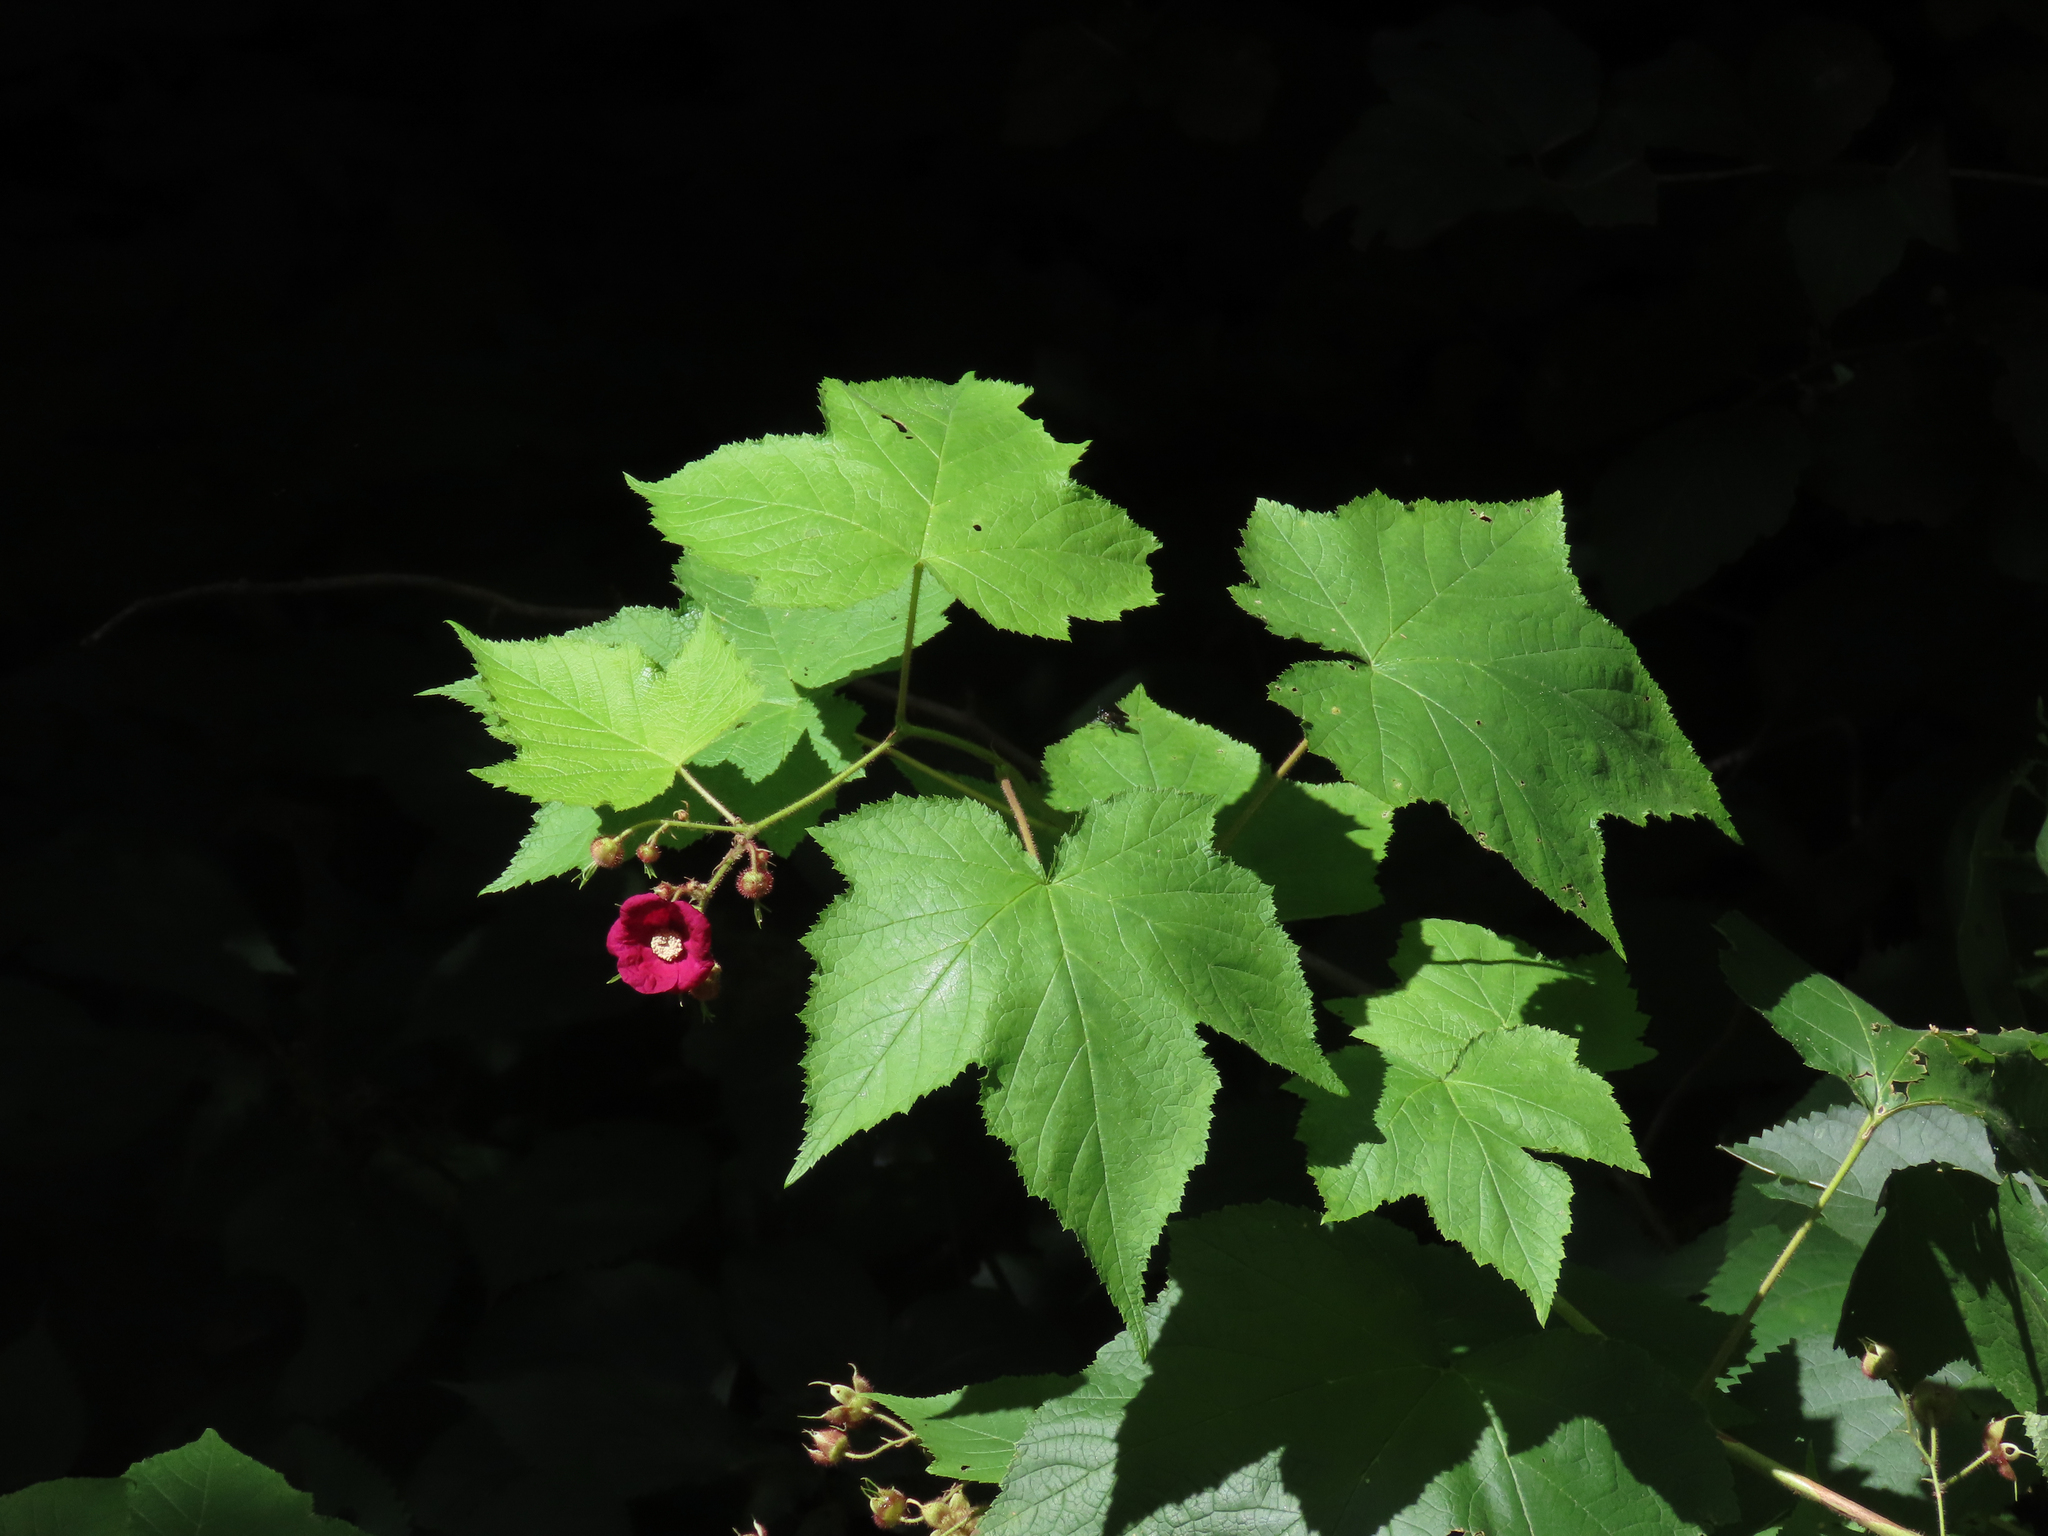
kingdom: Plantae
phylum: Tracheophyta
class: Magnoliopsida
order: Rosales
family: Rosaceae
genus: Rubus
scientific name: Rubus odoratus
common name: Purple-flowered raspberry
